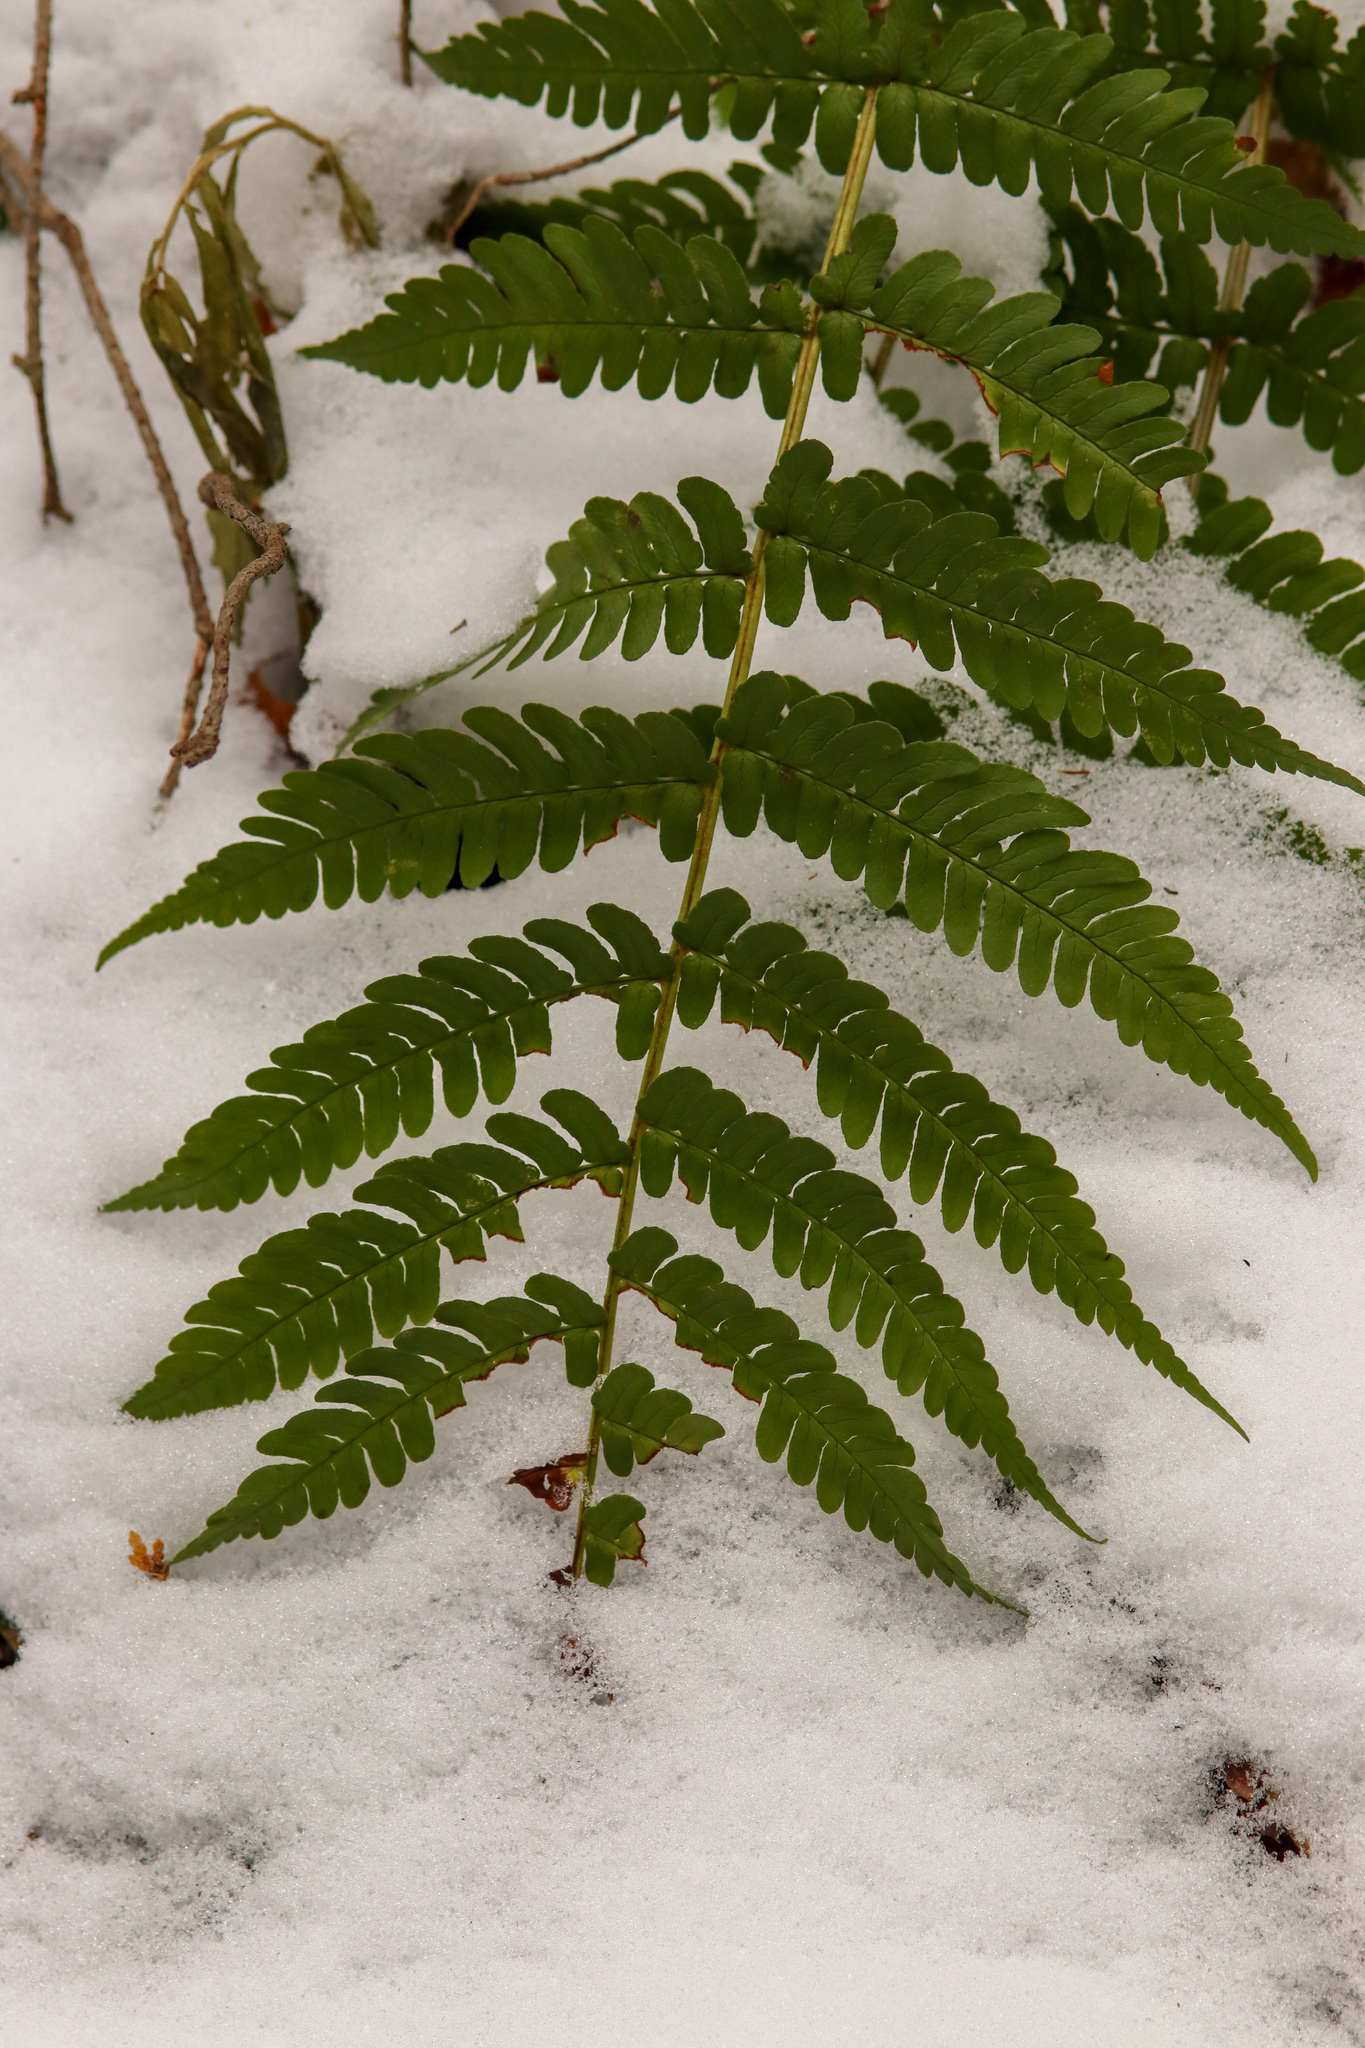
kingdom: Plantae
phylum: Tracheophyta
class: Polypodiopsida
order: Polypodiales
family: Dryopteridaceae
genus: Dryopteris
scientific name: Dryopteris marginalis
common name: Marginal wood fern
